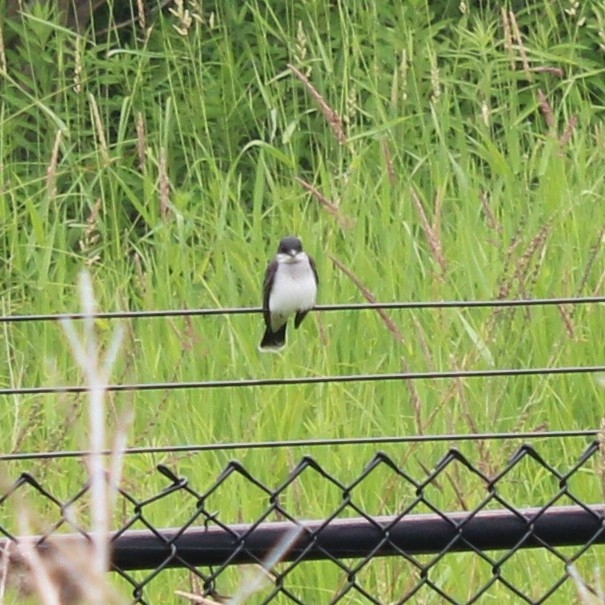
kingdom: Animalia
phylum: Chordata
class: Aves
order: Passeriformes
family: Tyrannidae
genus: Tyrannus
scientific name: Tyrannus tyrannus
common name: Eastern kingbird
